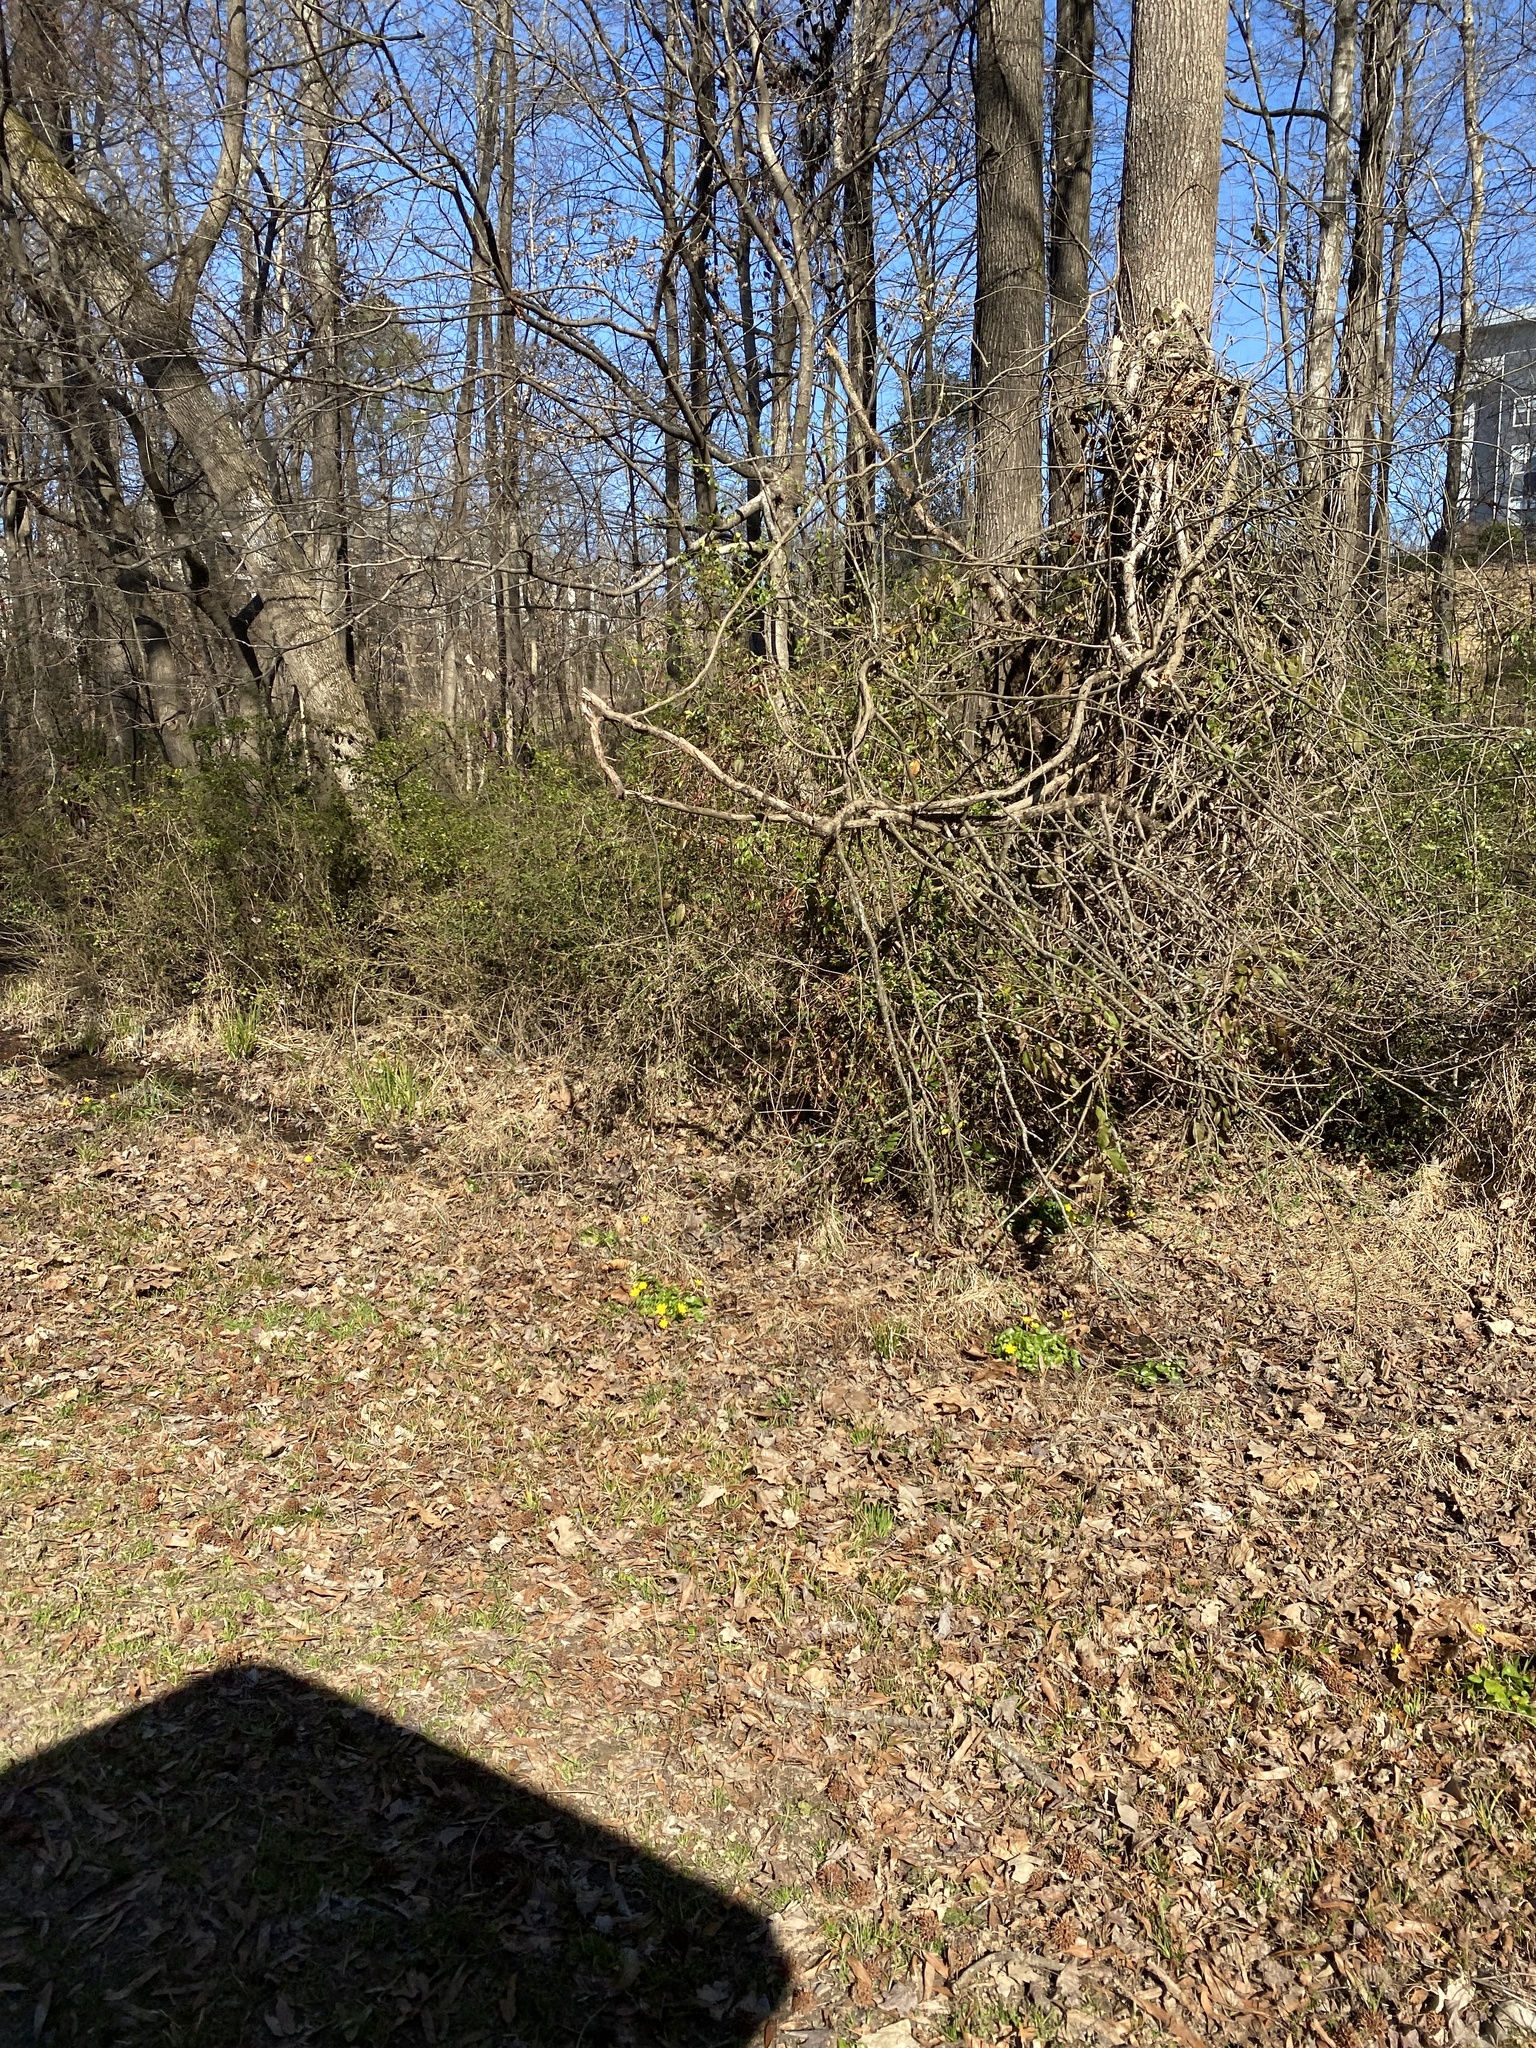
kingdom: Plantae
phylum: Tracheophyta
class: Magnoliopsida
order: Ranunculales
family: Ranunculaceae
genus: Ficaria
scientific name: Ficaria verna
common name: Lesser celandine
